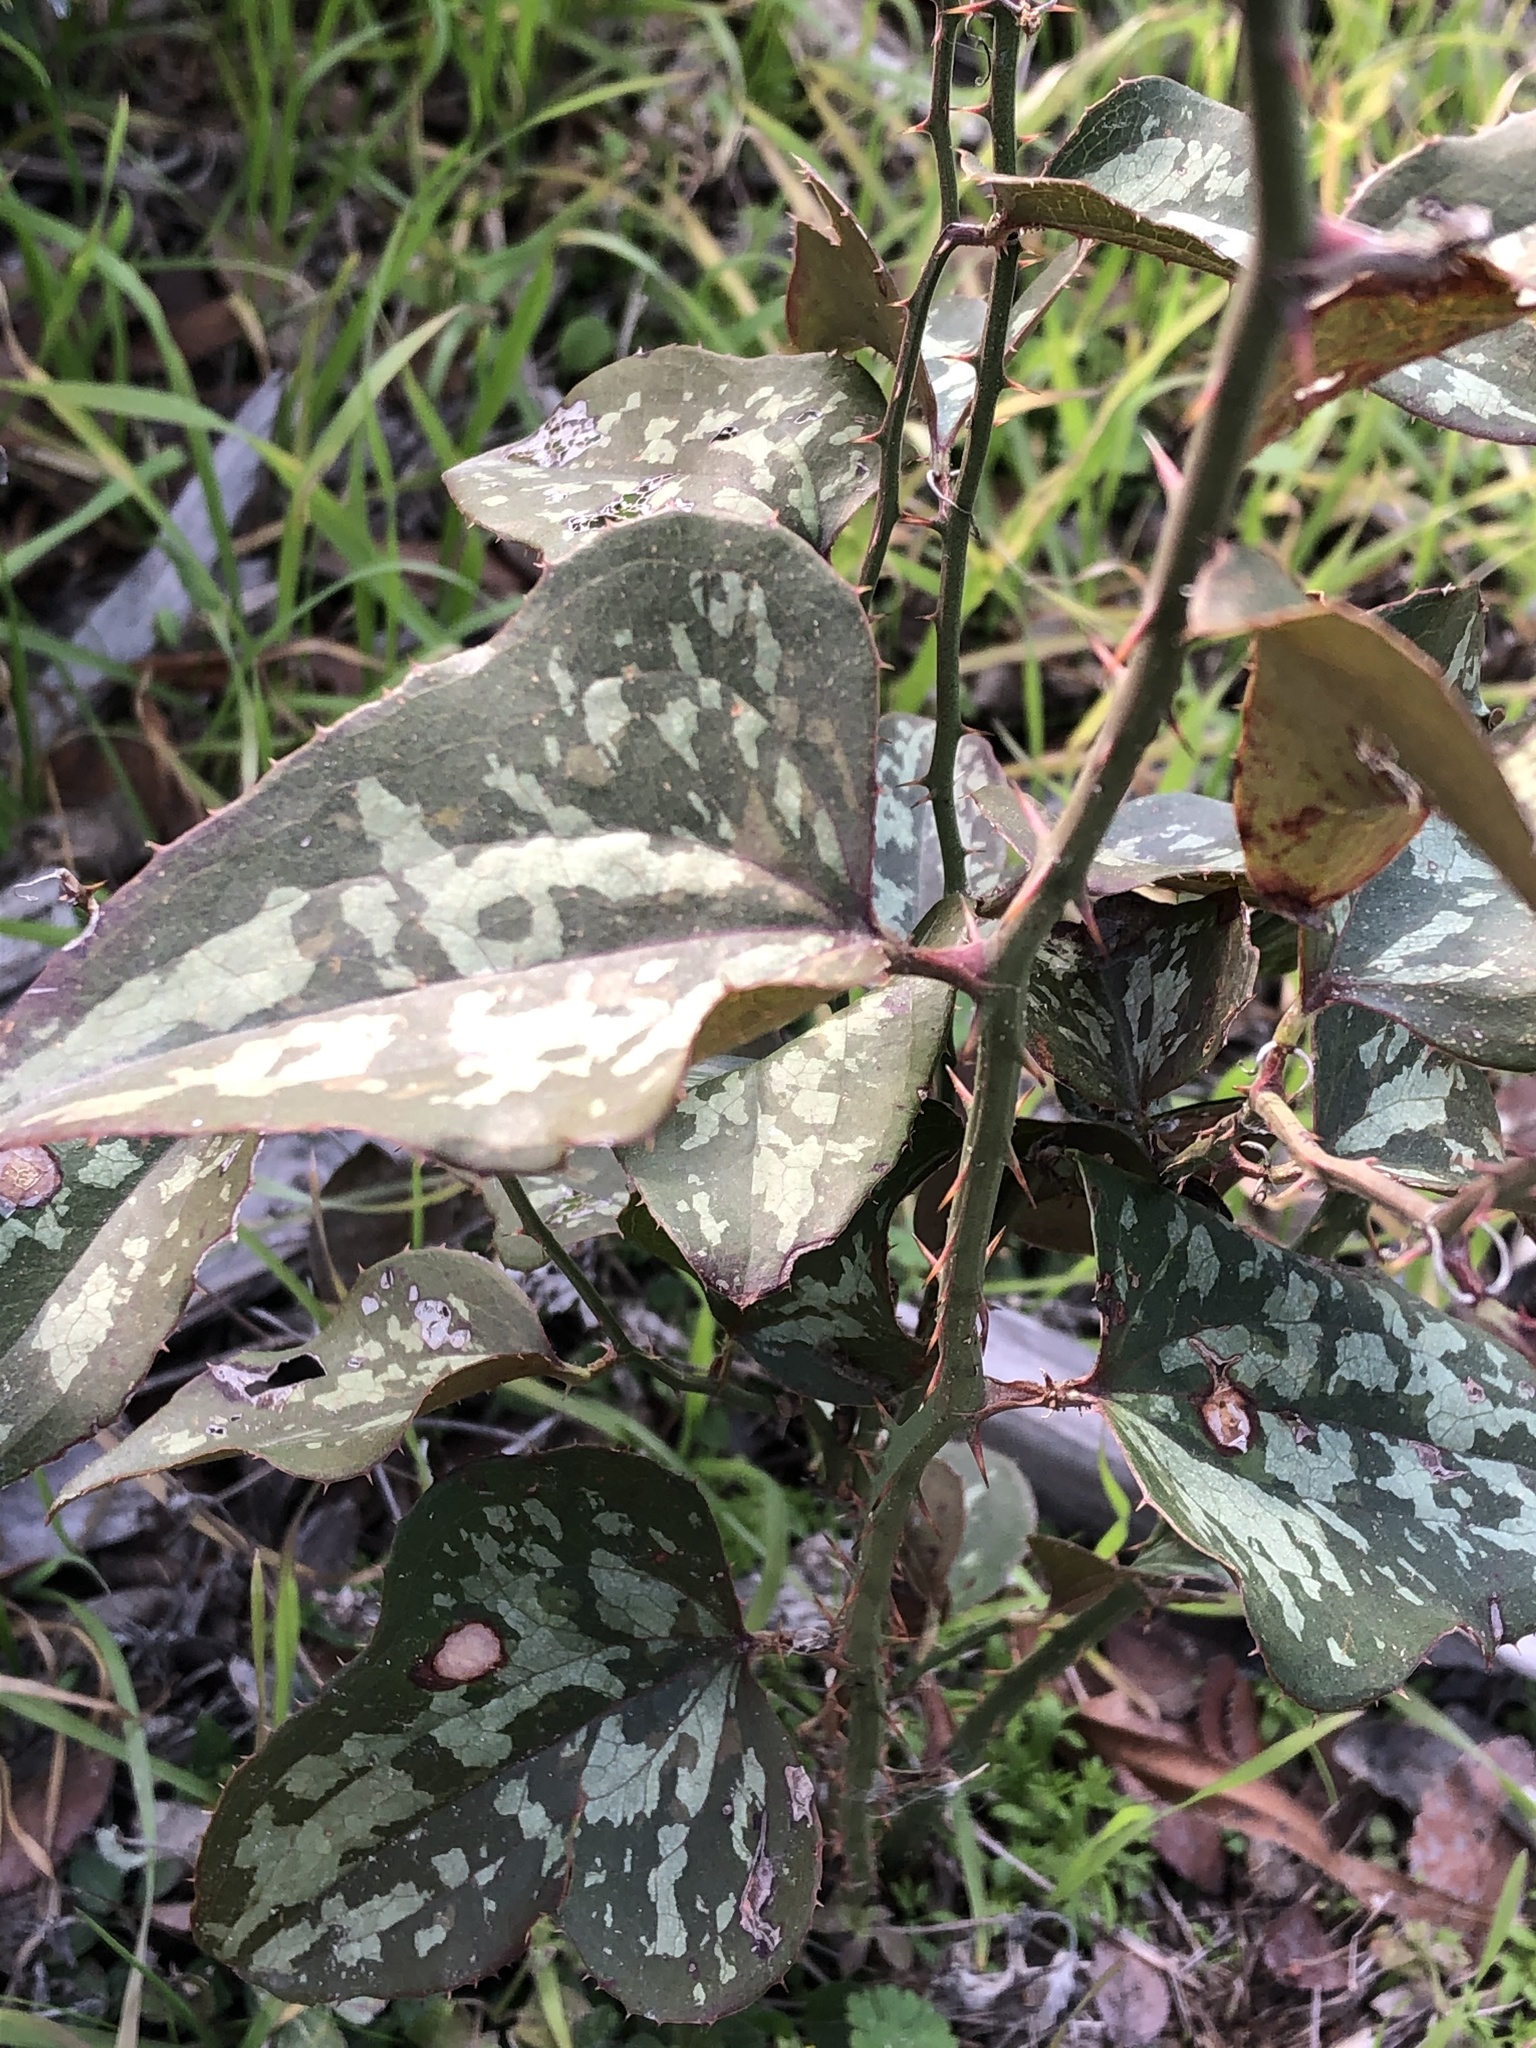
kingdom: Plantae
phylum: Tracheophyta
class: Liliopsida
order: Liliales
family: Smilacaceae
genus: Smilax
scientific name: Smilax bona-nox
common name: Catbrier
